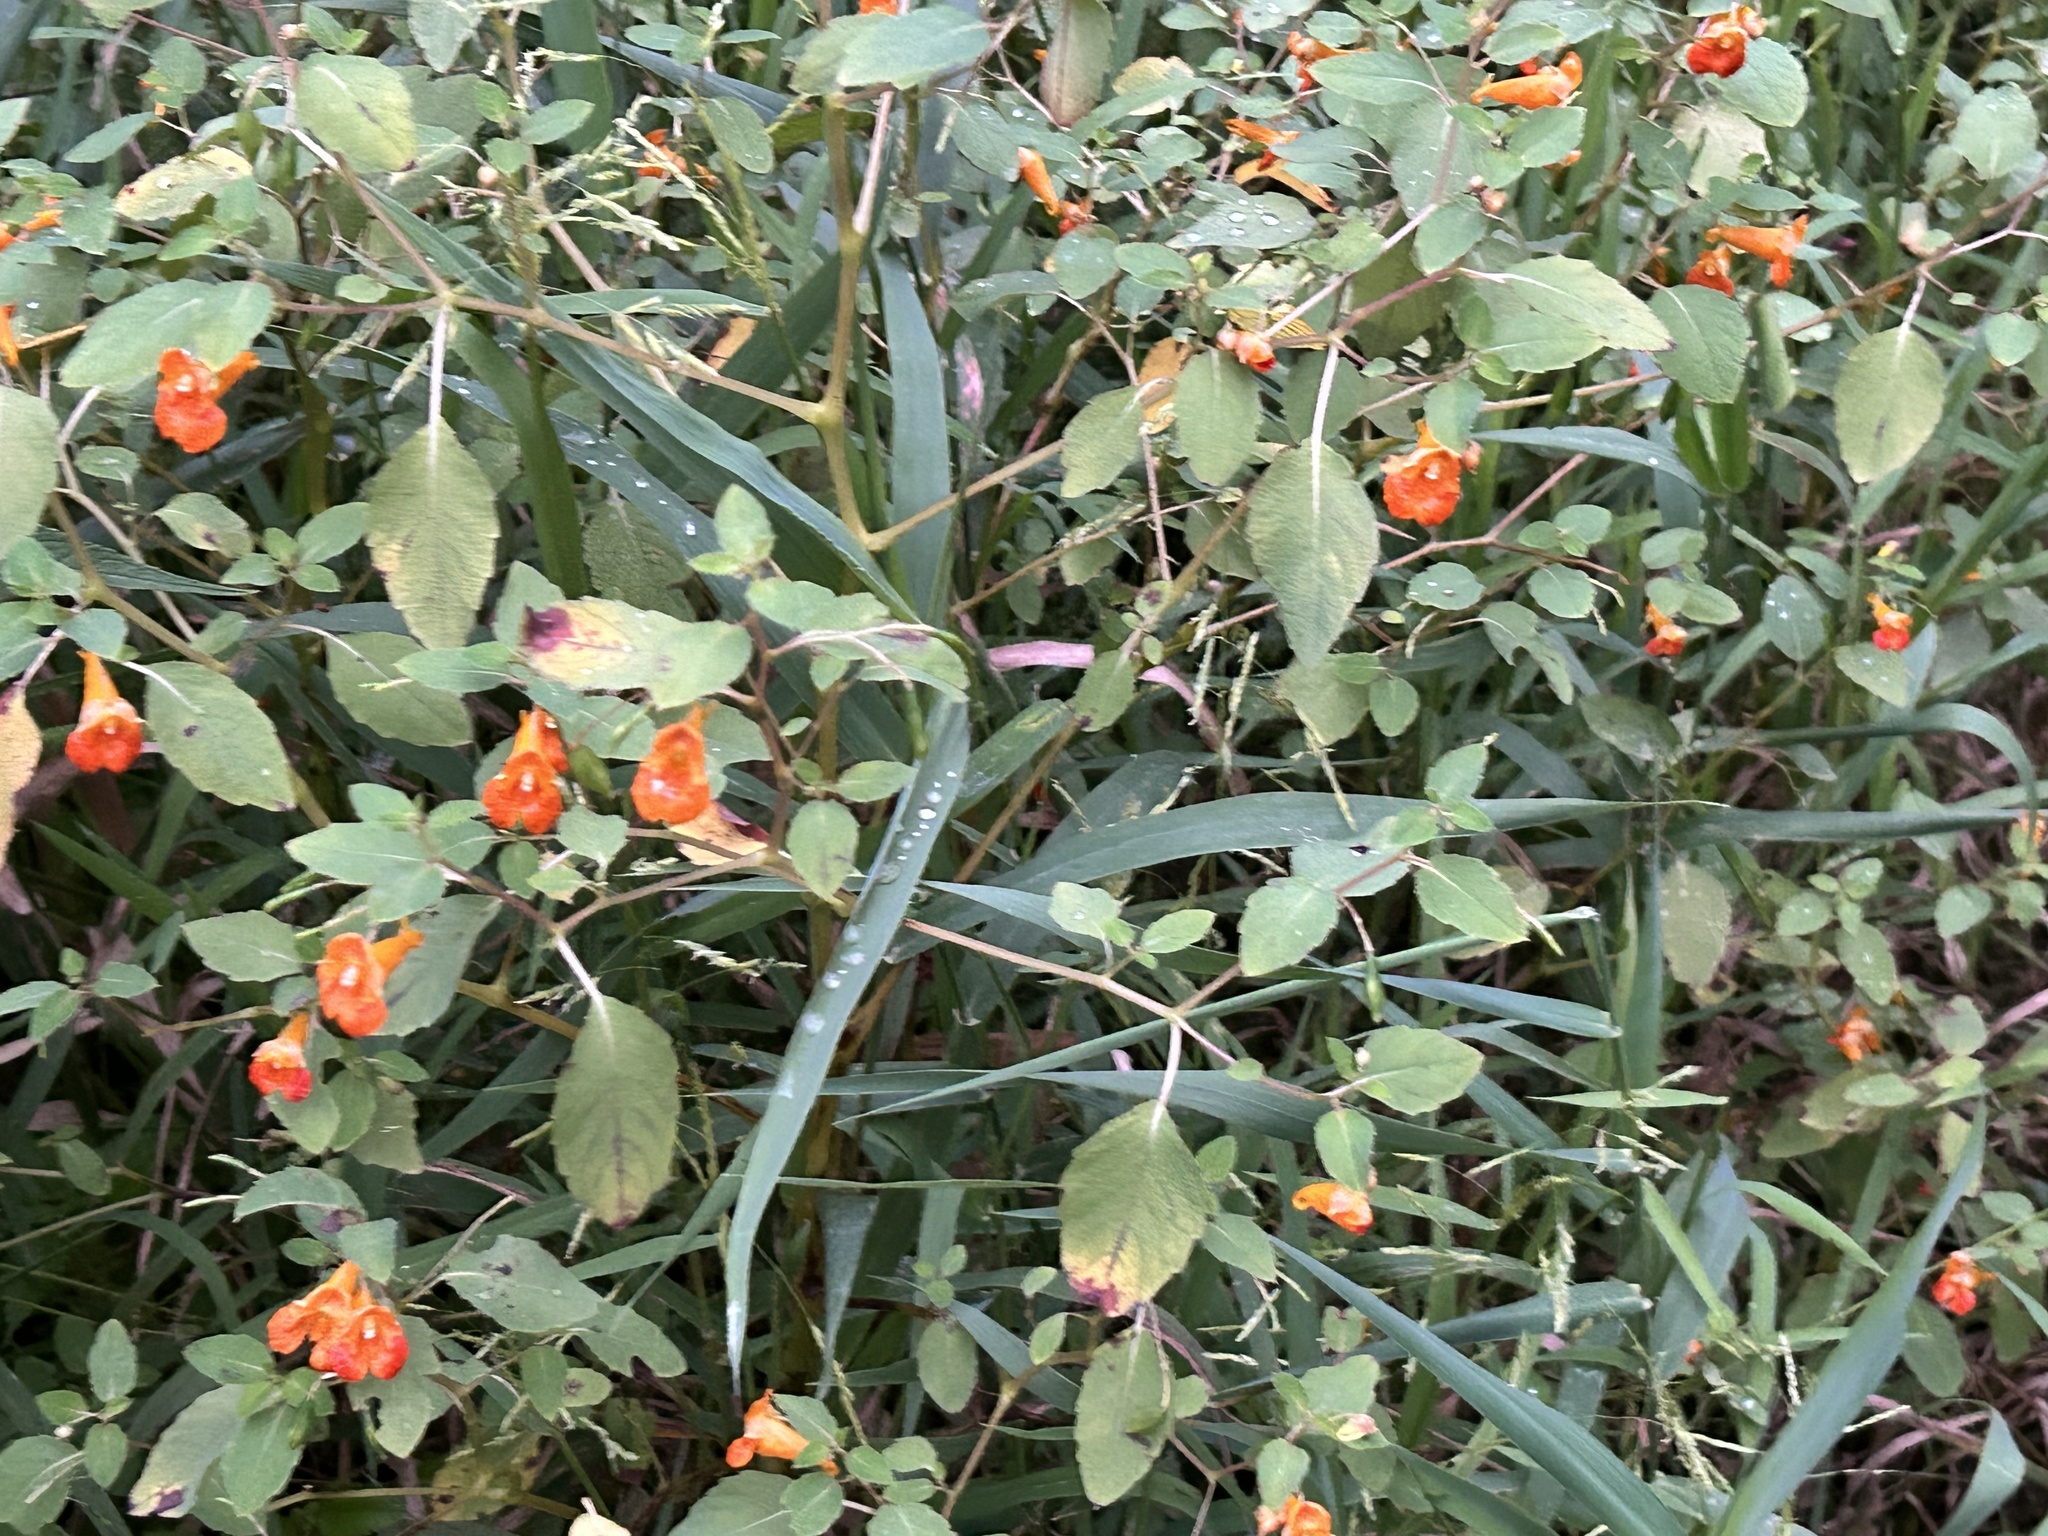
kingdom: Plantae
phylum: Tracheophyta
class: Magnoliopsida
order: Ericales
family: Balsaminaceae
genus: Impatiens
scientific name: Impatiens capensis
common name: Orange balsam
